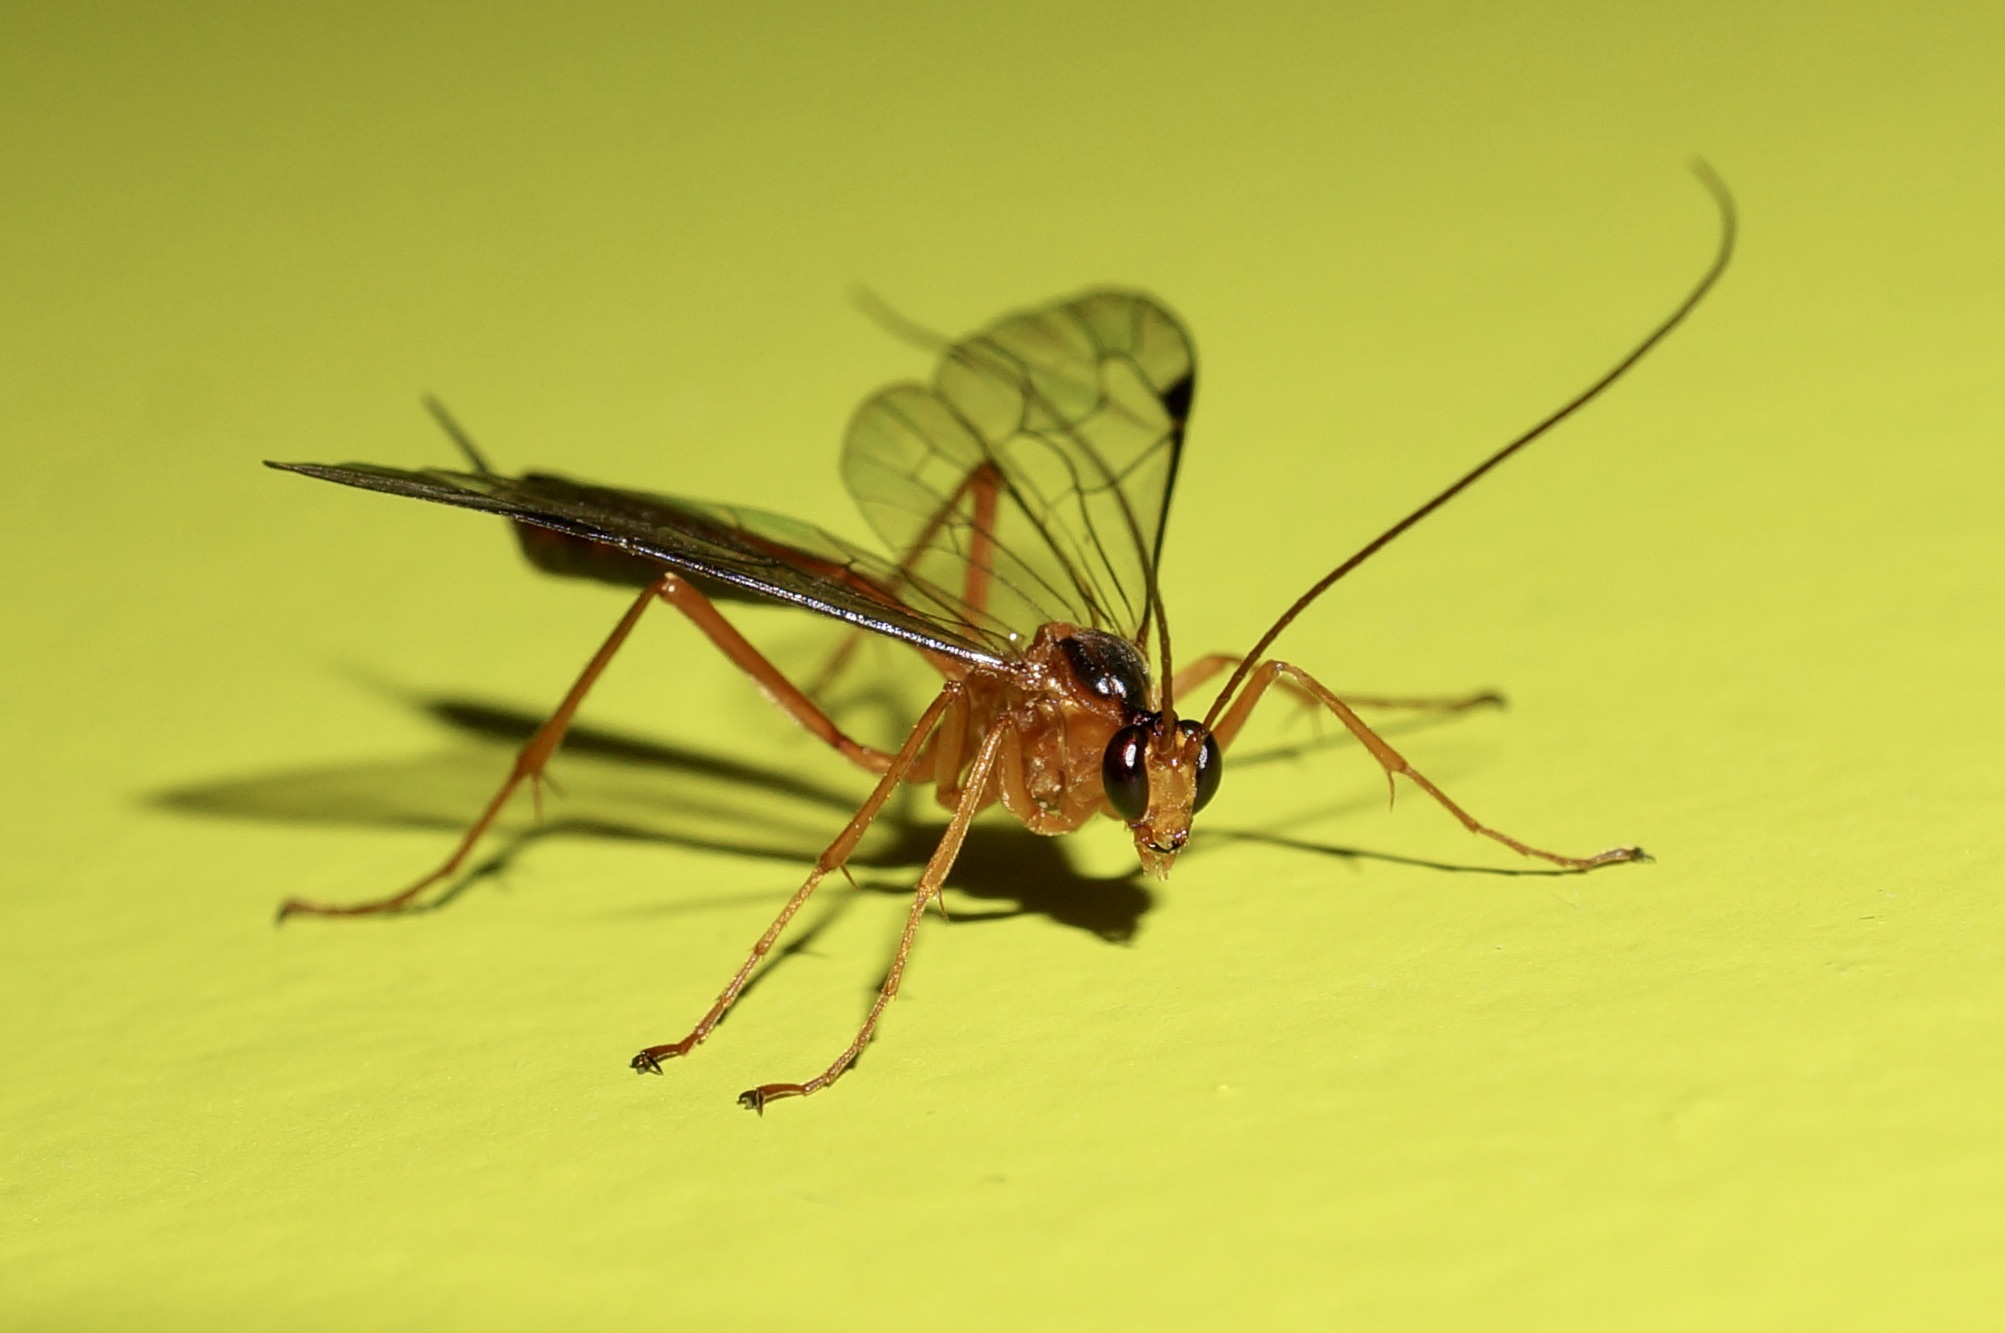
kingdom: Animalia
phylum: Arthropoda
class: Insecta
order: Hymenoptera
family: Ichneumonidae
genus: Netelia
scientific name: Netelia ephippiata
